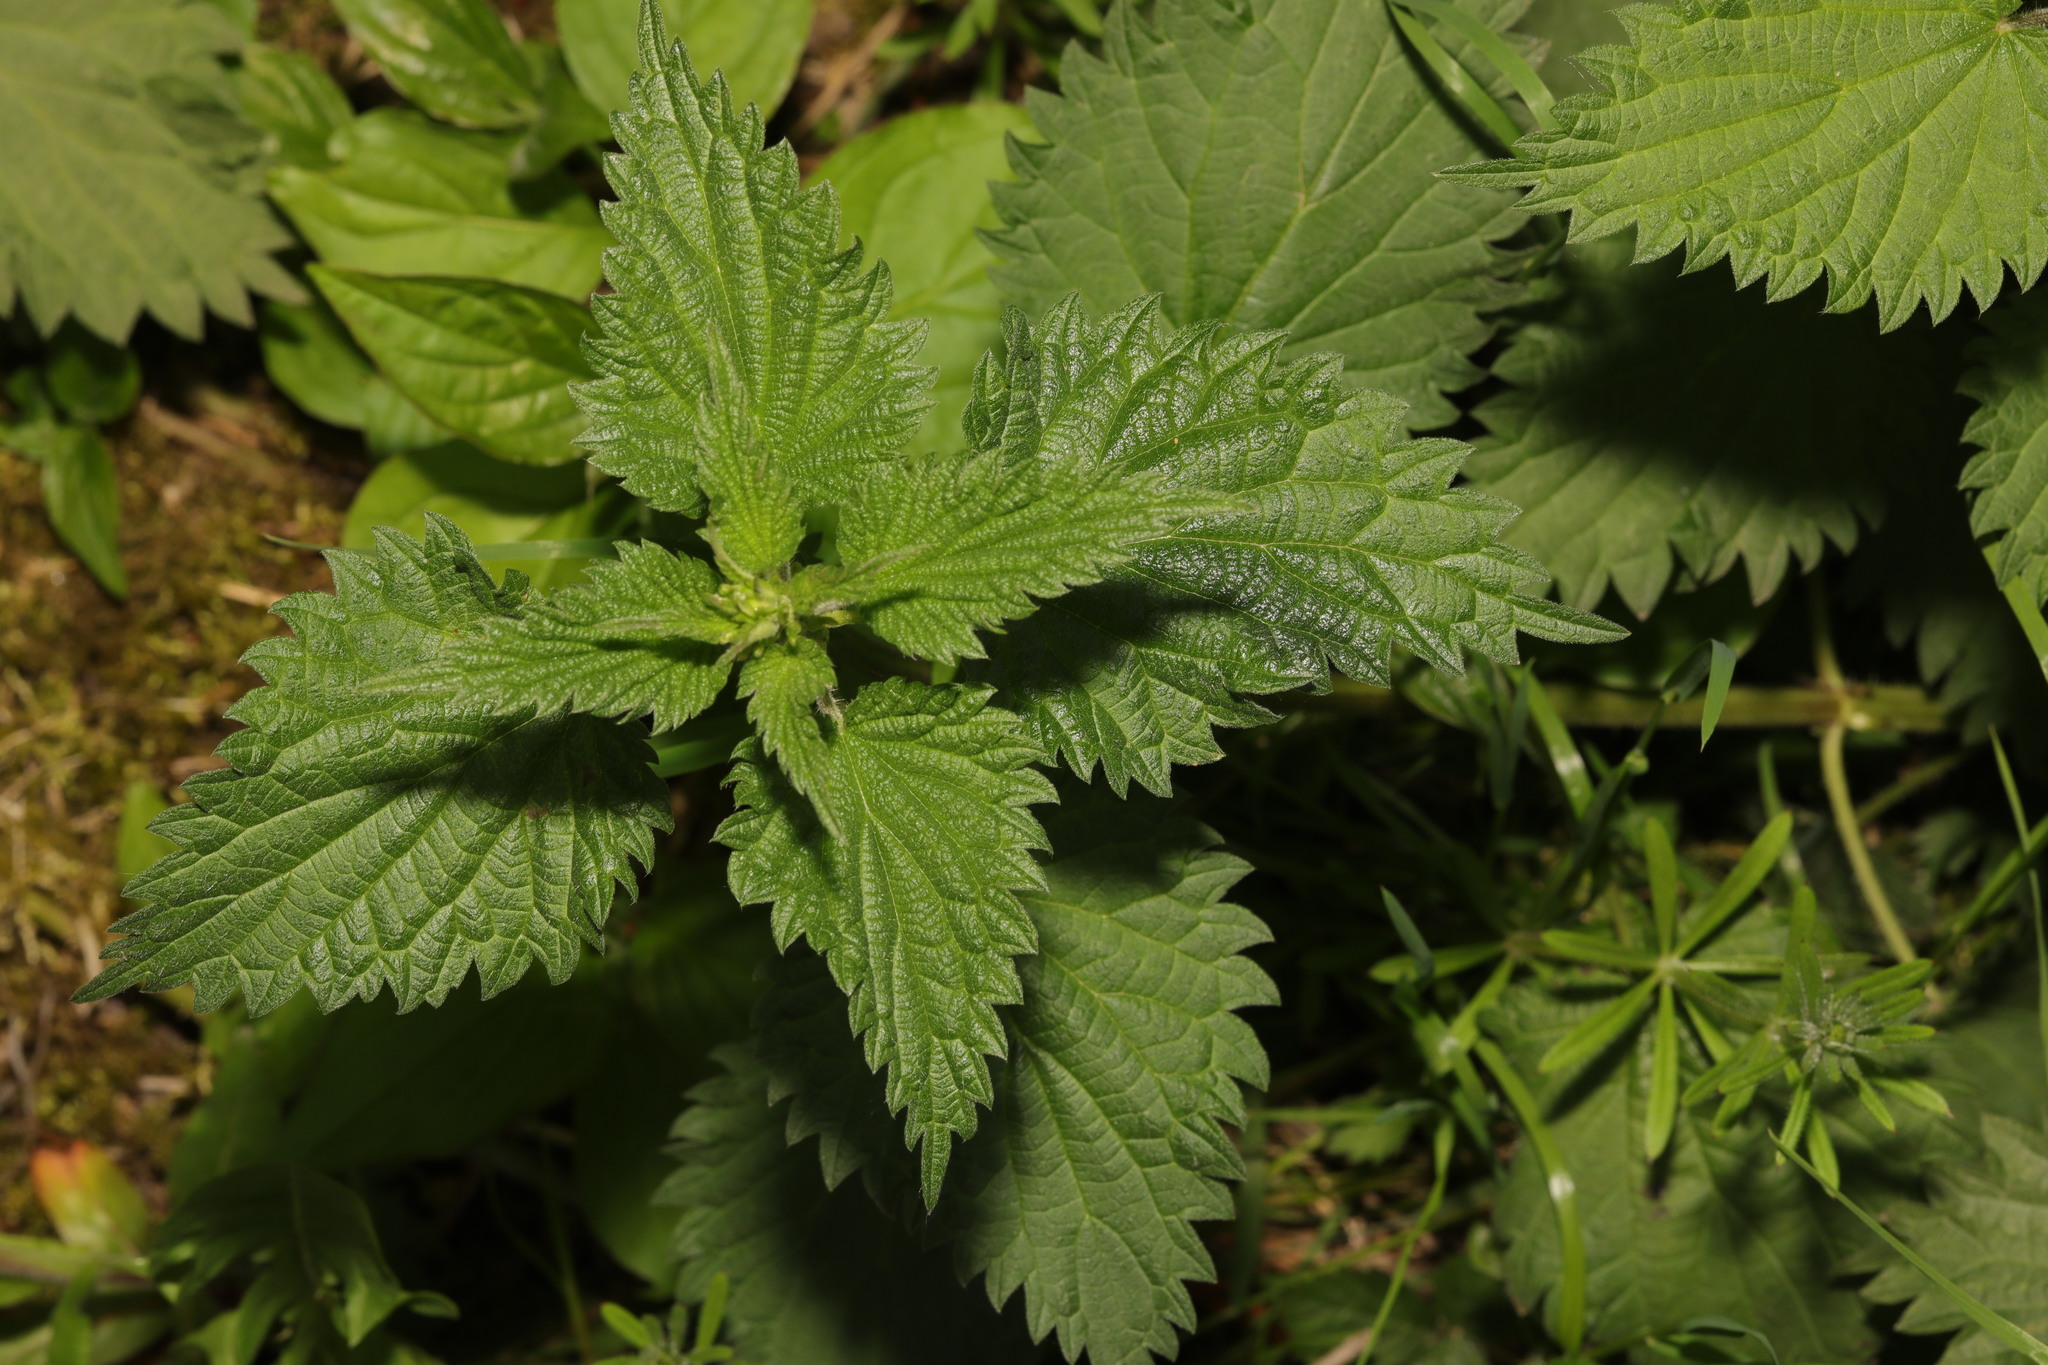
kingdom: Plantae
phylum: Tracheophyta
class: Magnoliopsida
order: Rosales
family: Urticaceae
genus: Urtica
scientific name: Urtica dioica
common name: Common nettle
